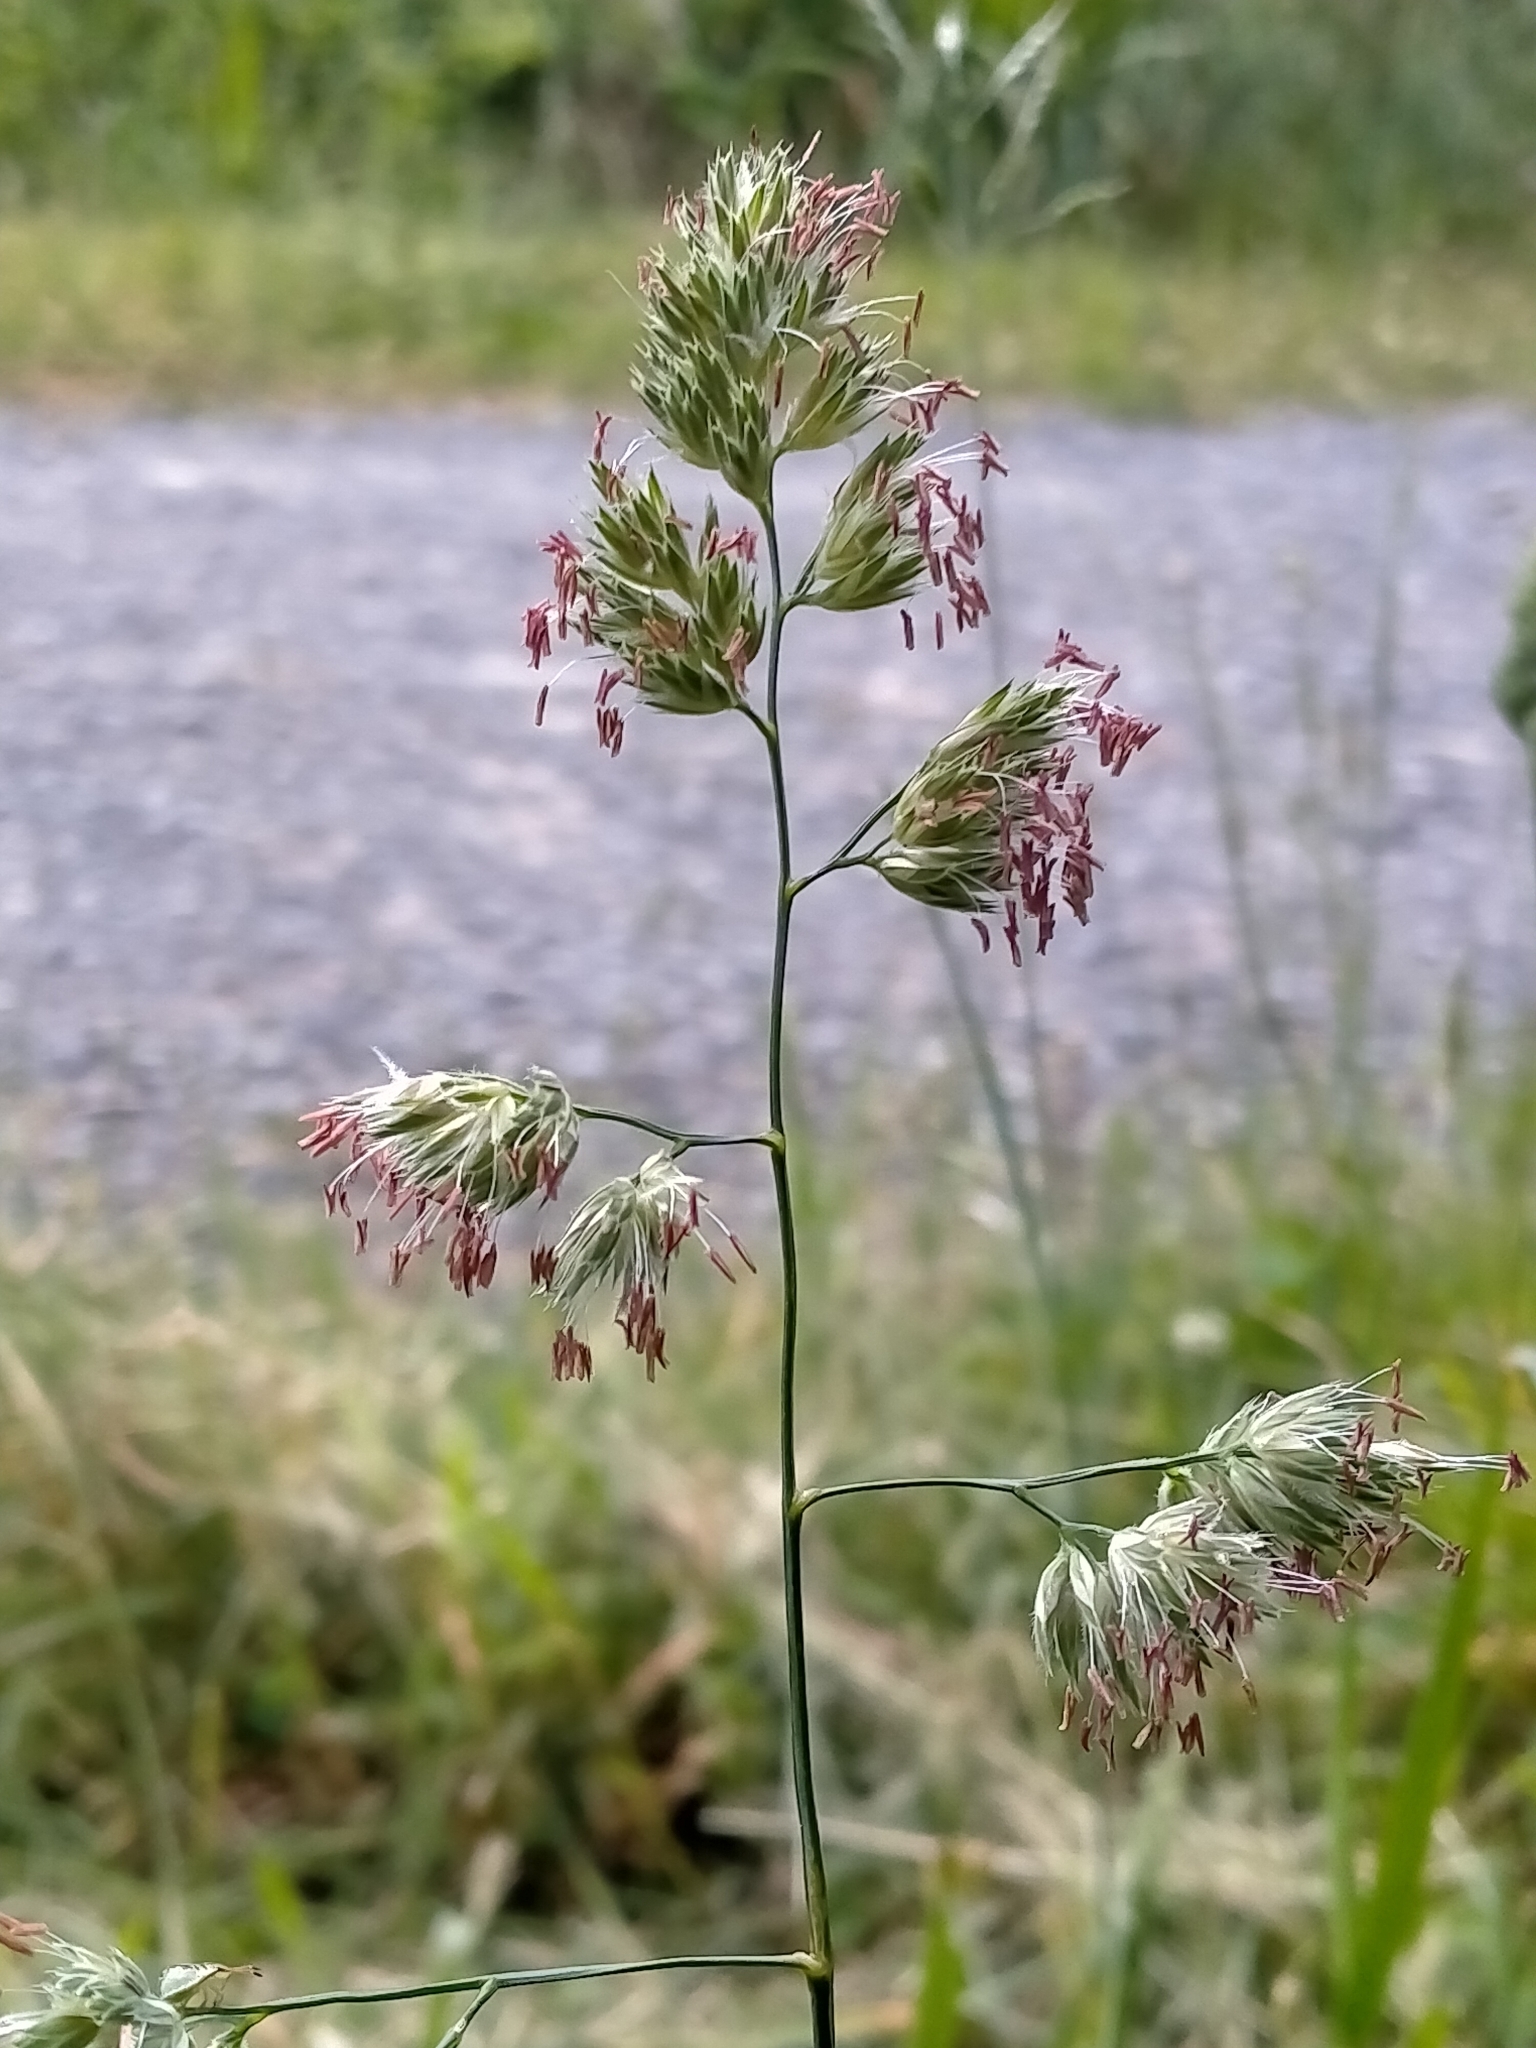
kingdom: Plantae
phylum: Tracheophyta
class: Liliopsida
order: Poales
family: Poaceae
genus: Dactylis
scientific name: Dactylis glomerata
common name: Orchardgrass
